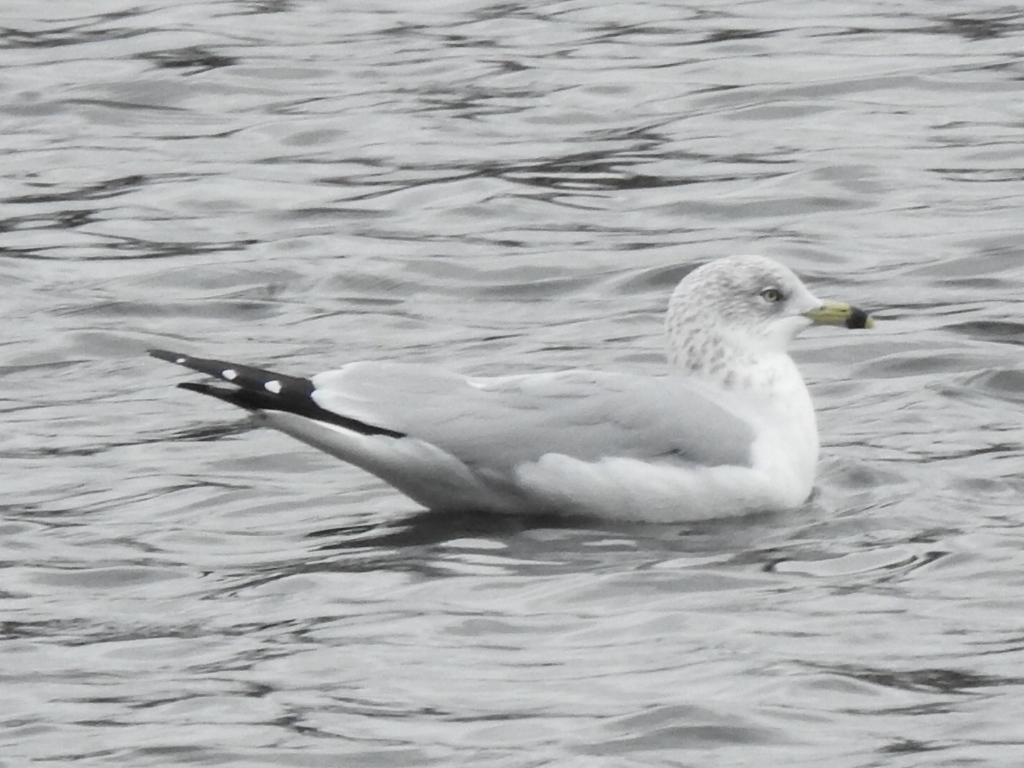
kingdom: Animalia
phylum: Chordata
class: Aves
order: Charadriiformes
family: Laridae
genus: Larus
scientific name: Larus delawarensis
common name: Ring-billed gull
